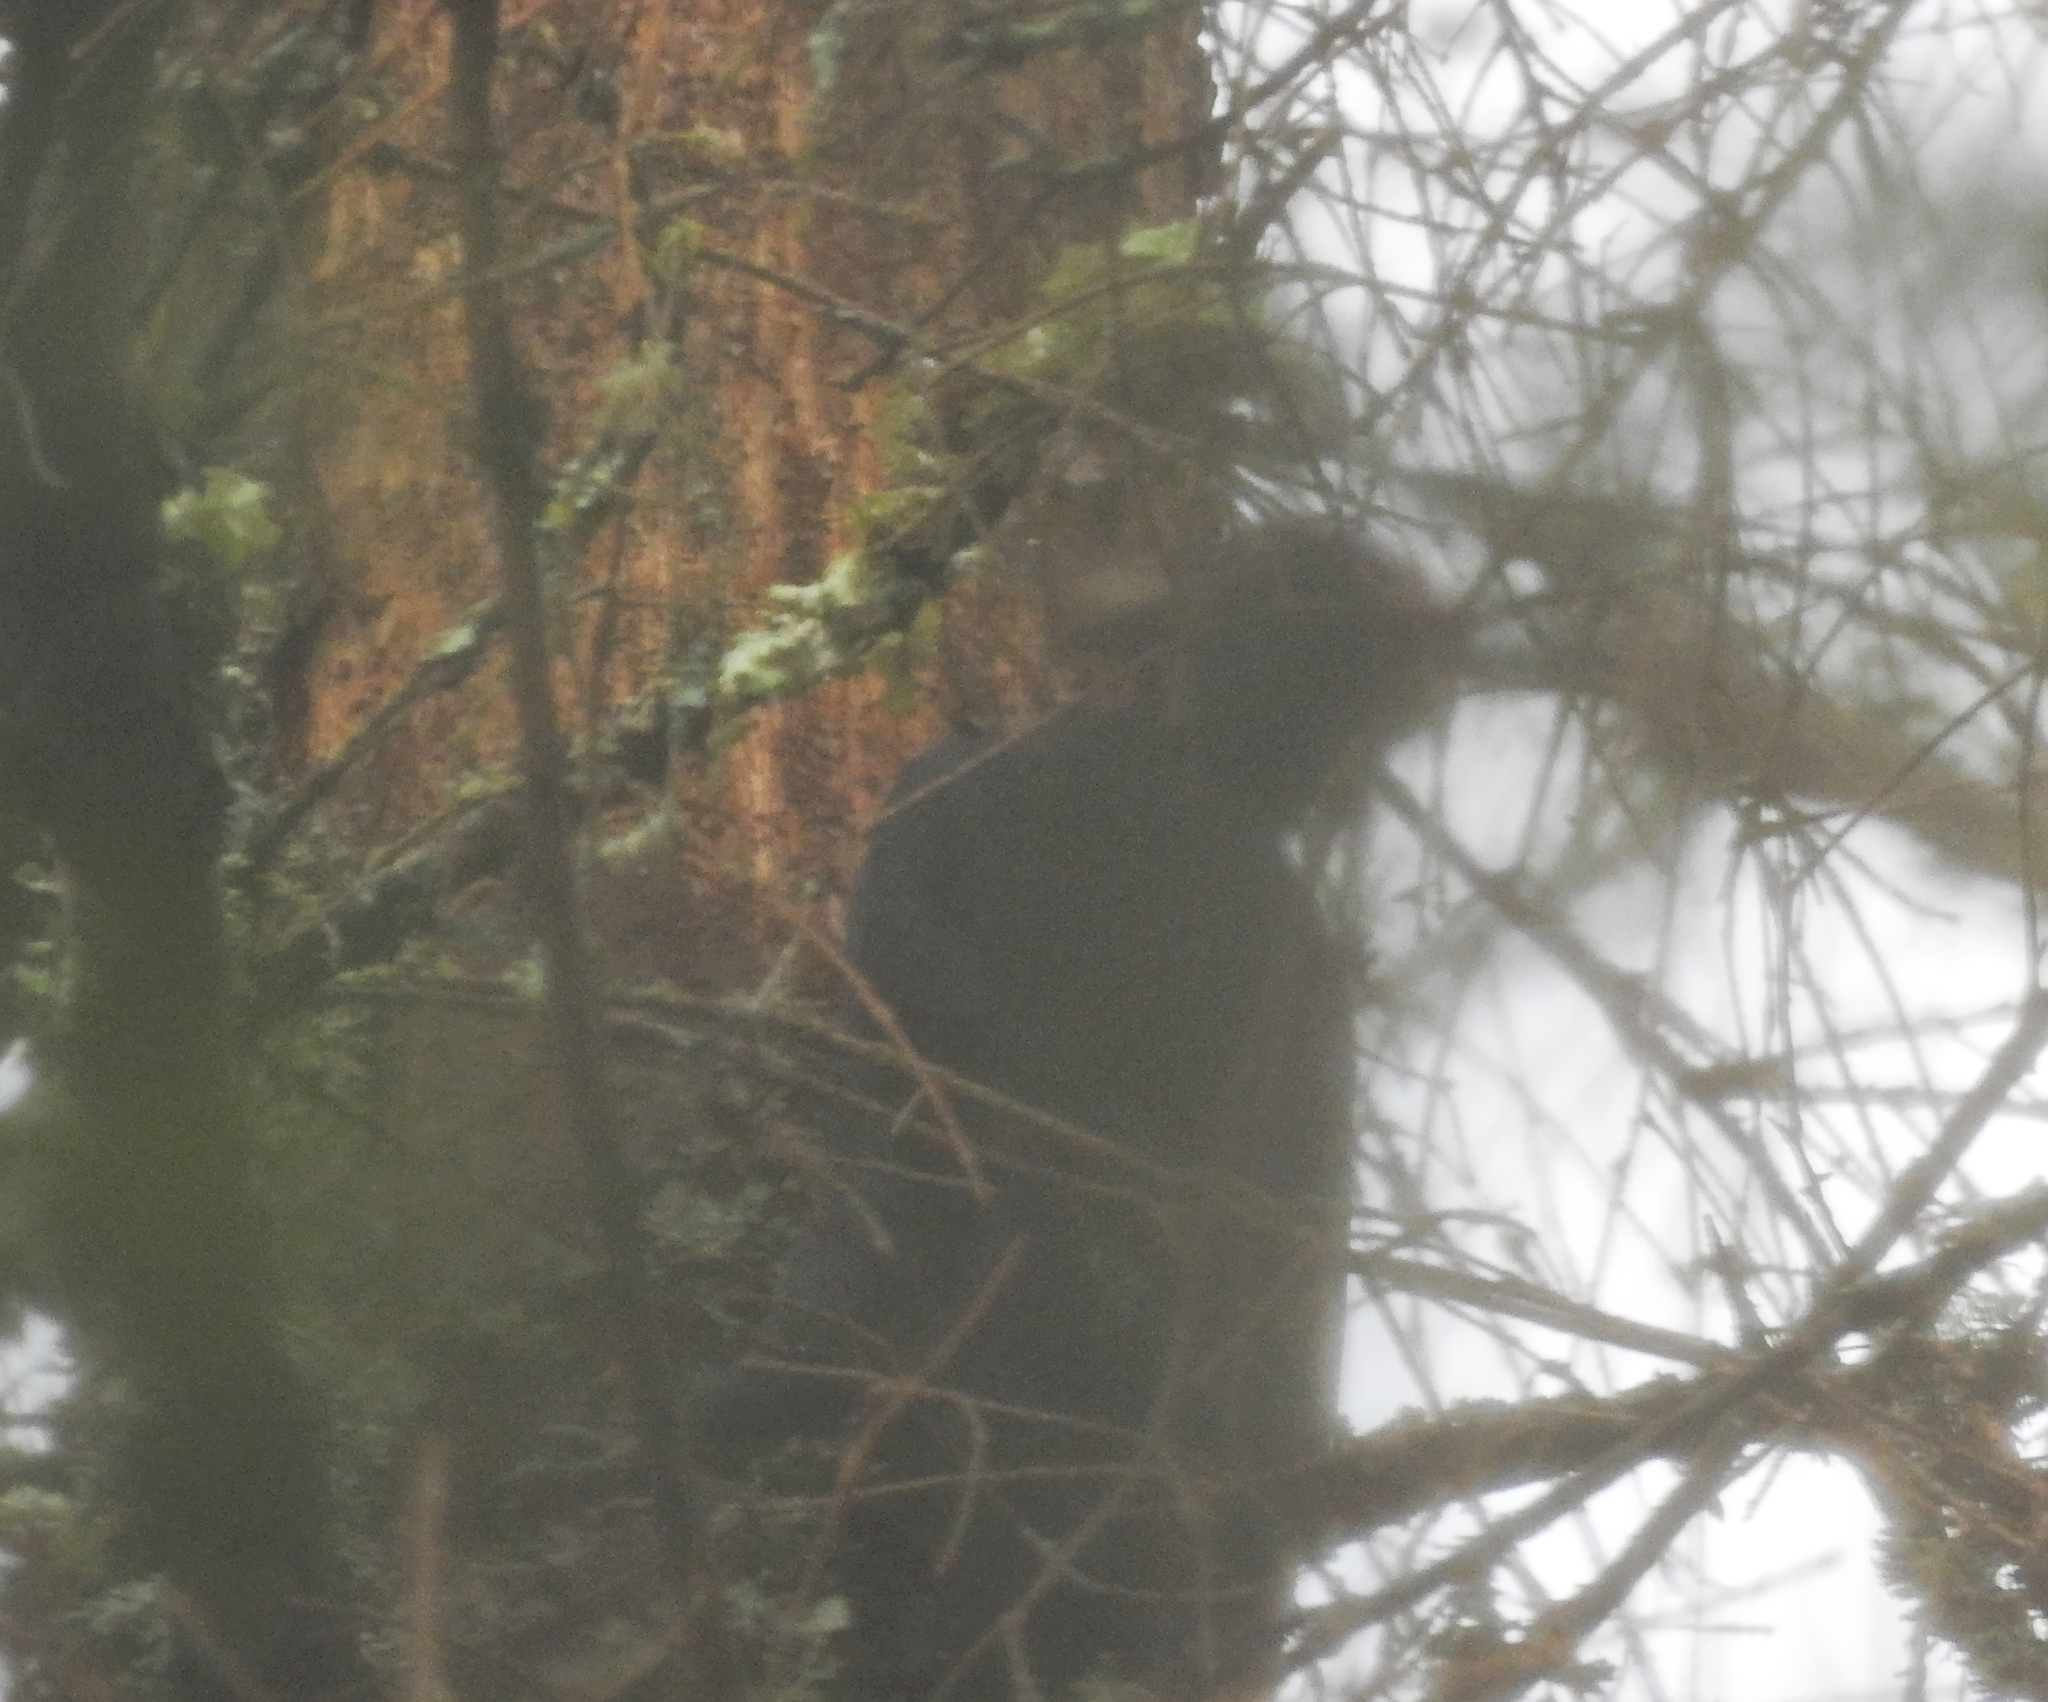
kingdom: Animalia
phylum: Chordata
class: Aves
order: Piciformes
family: Picidae
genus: Dryocopus
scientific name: Dryocopus martius
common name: Black woodpecker
